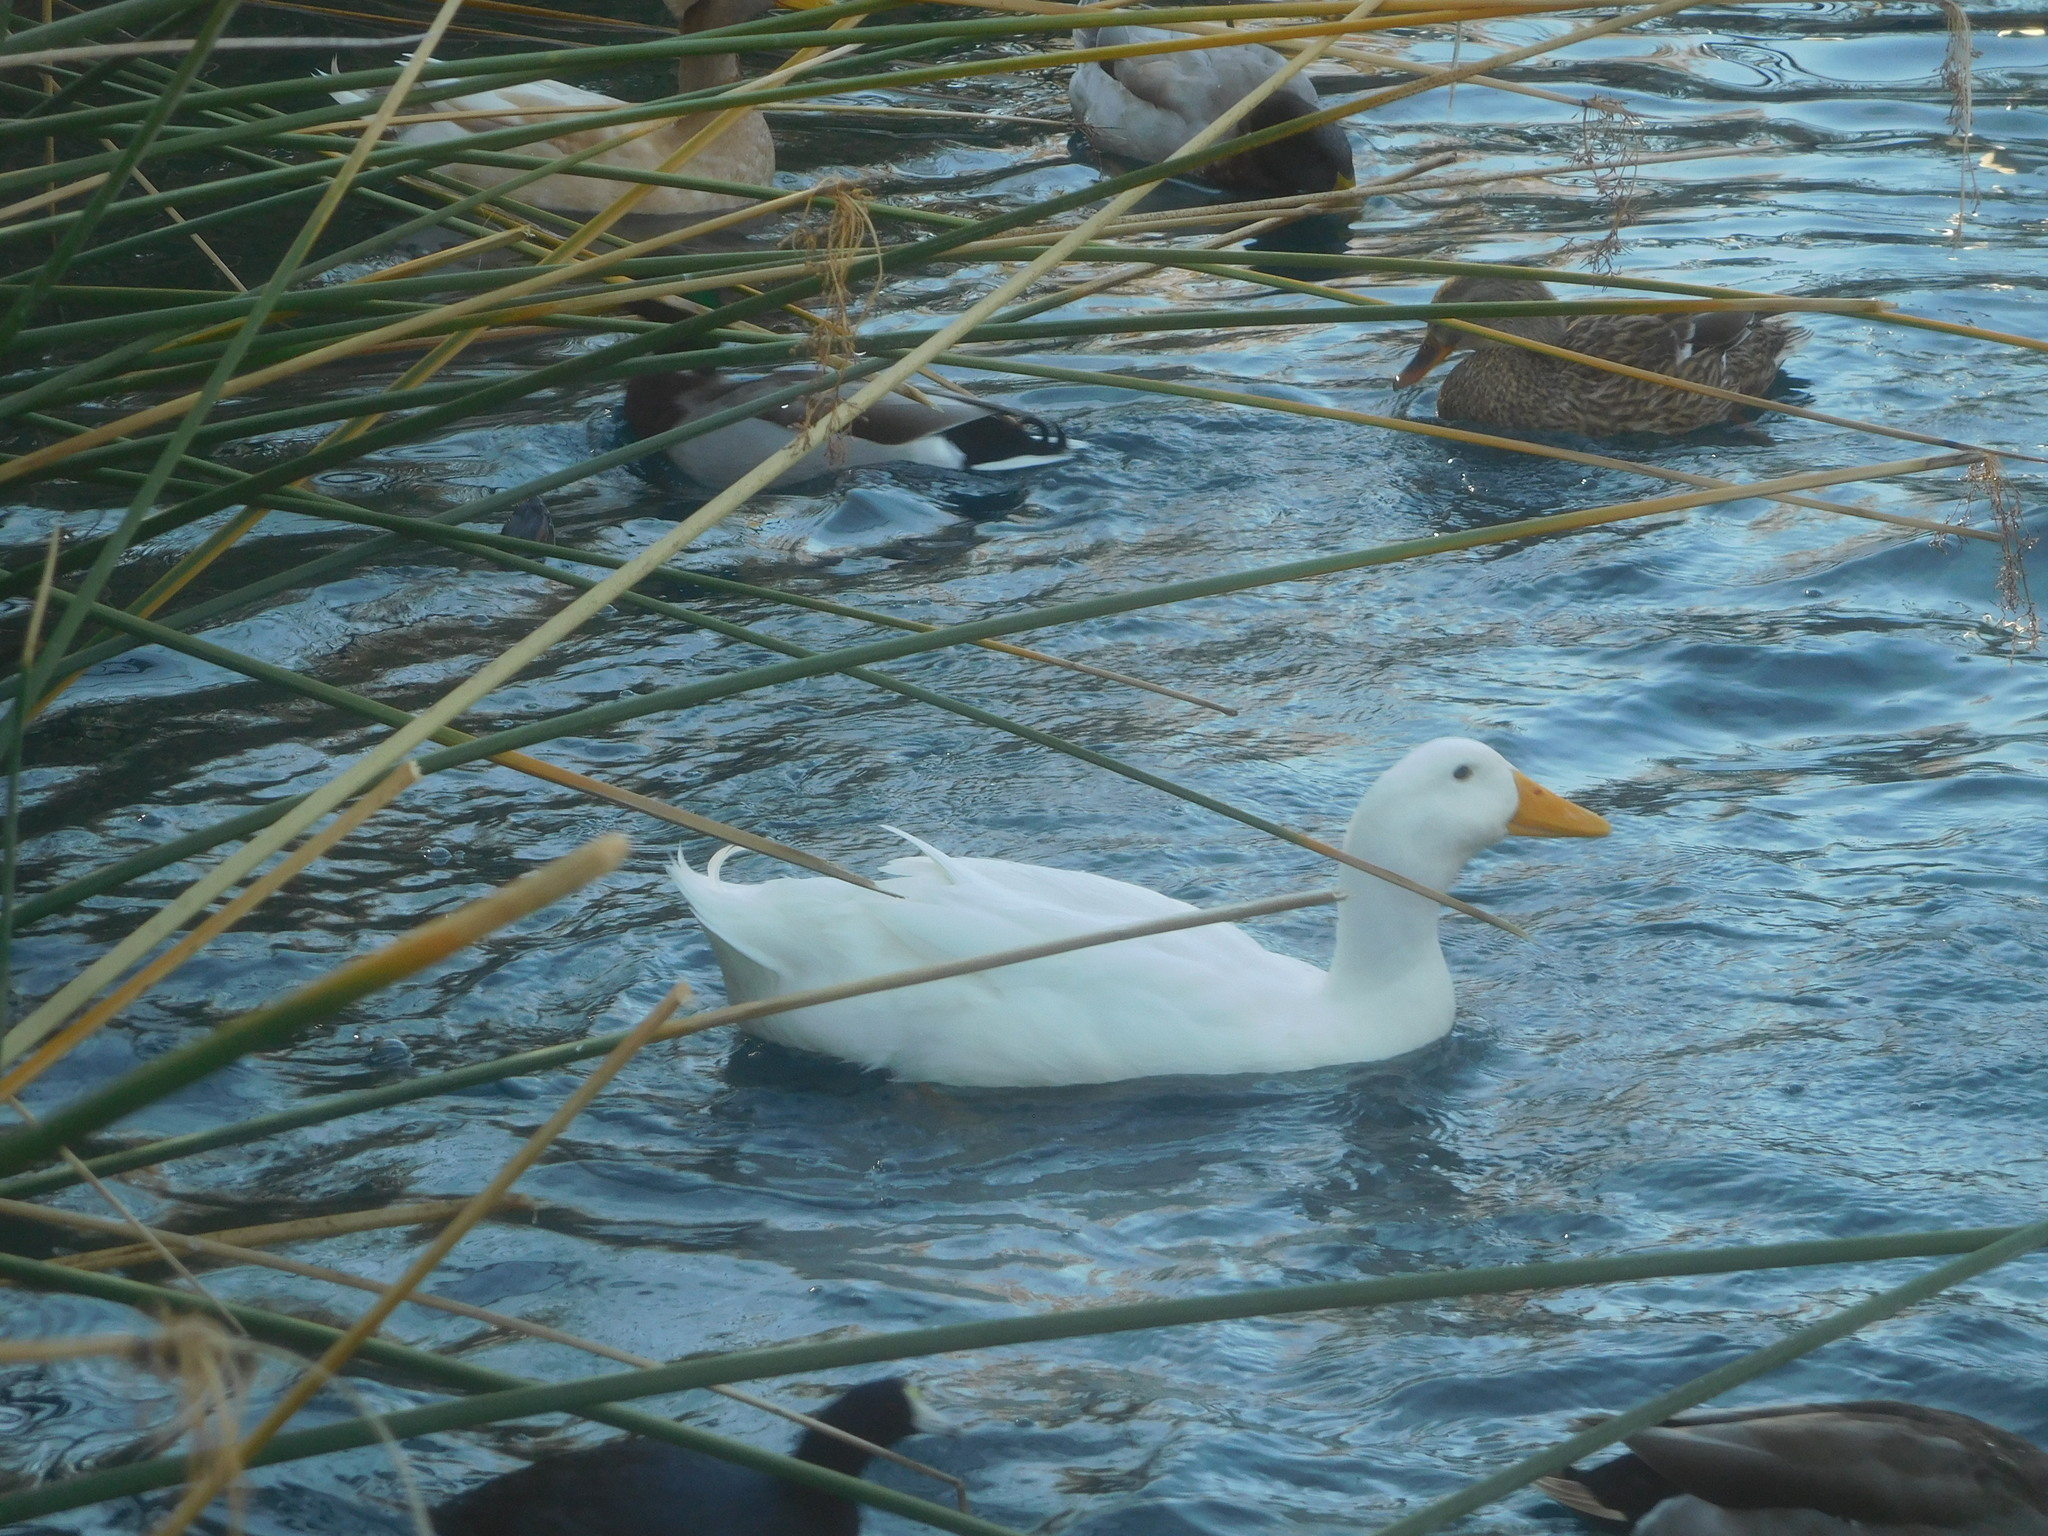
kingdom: Animalia
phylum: Chordata
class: Aves
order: Anseriformes
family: Anatidae
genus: Anas
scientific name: Anas platyrhynchos
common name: Mallard
